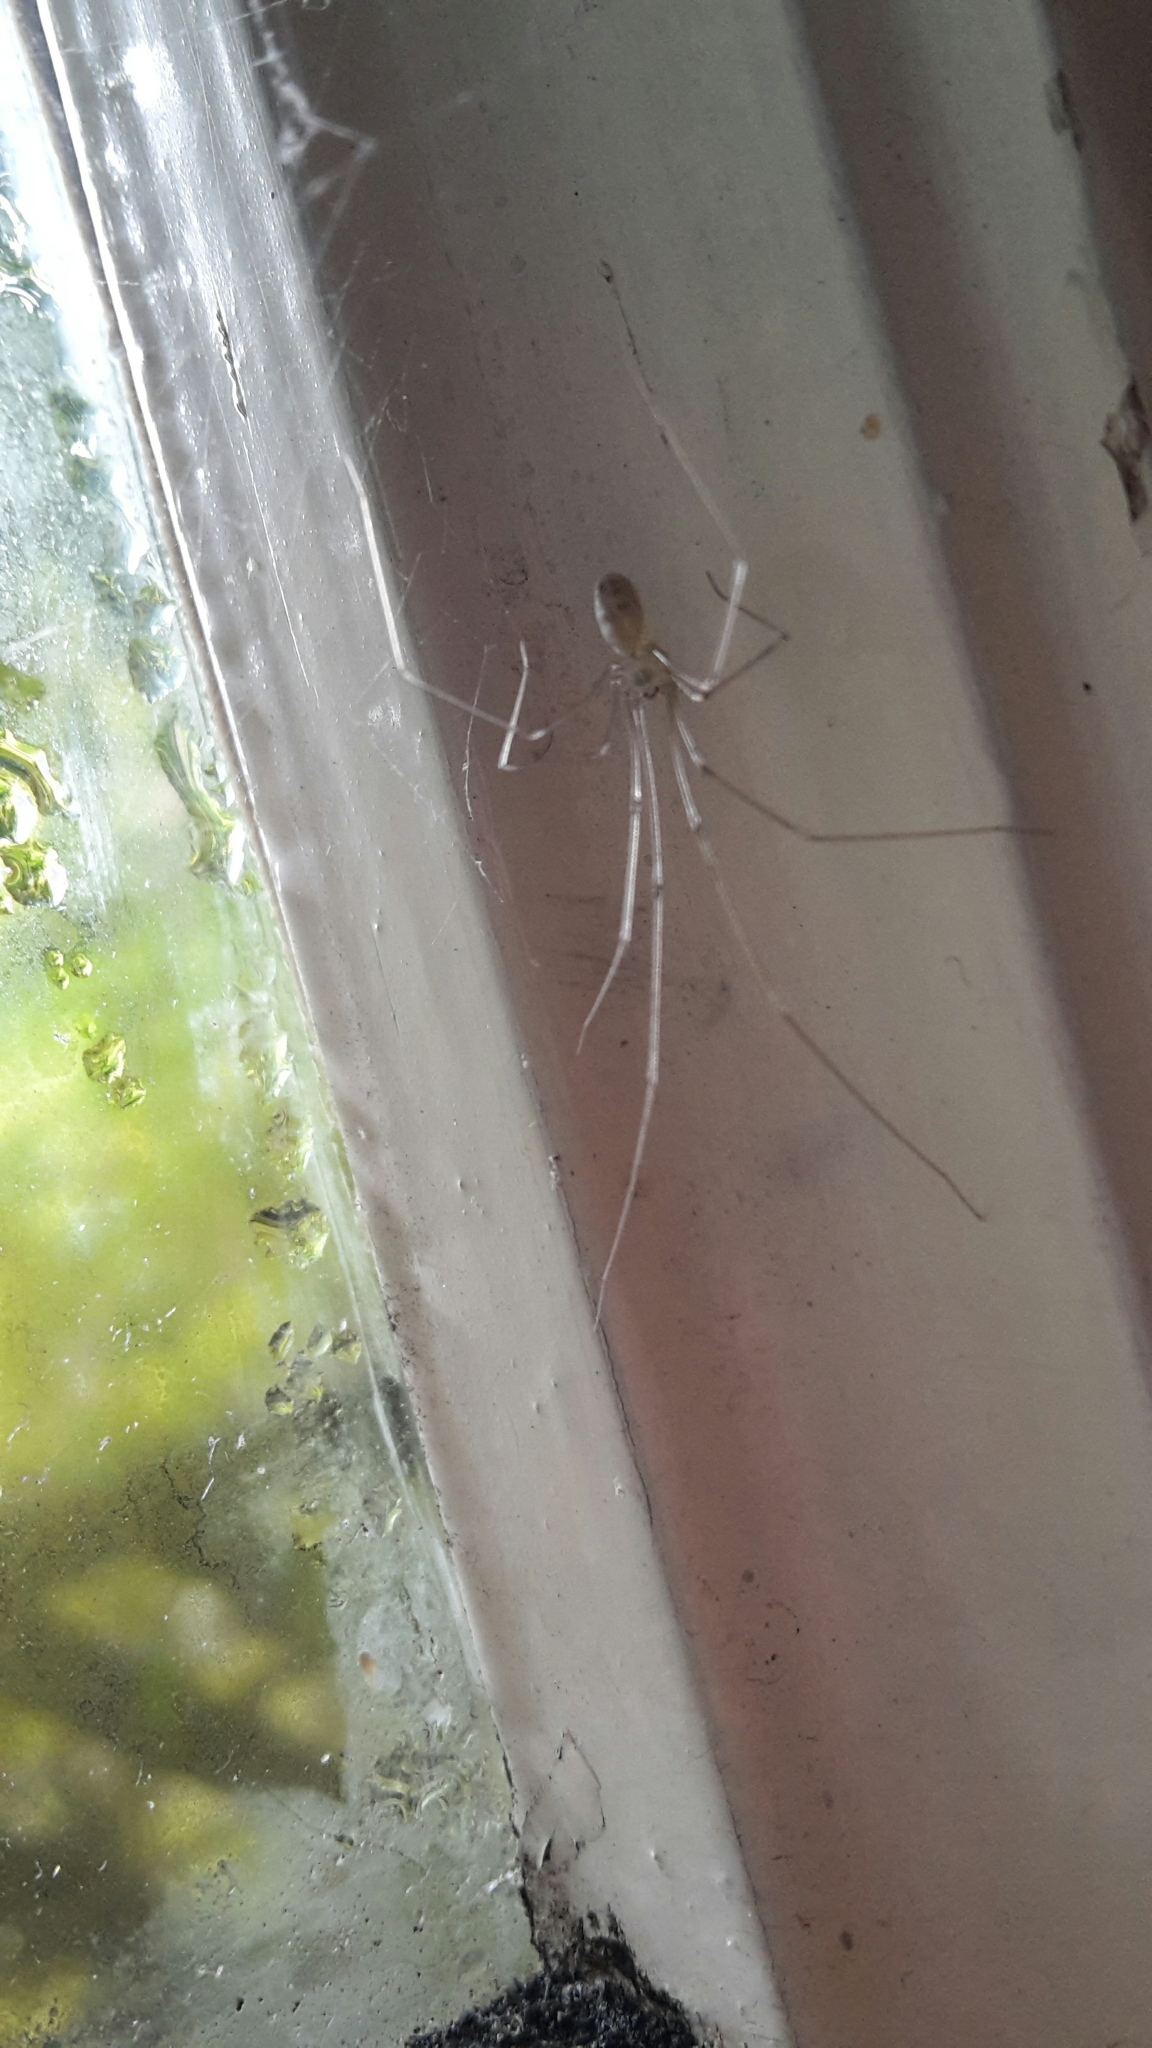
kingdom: Animalia
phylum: Arthropoda
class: Arachnida
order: Araneae
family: Pholcidae
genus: Pholcus
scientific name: Pholcus phalangioides
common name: Longbodied cellar spider
